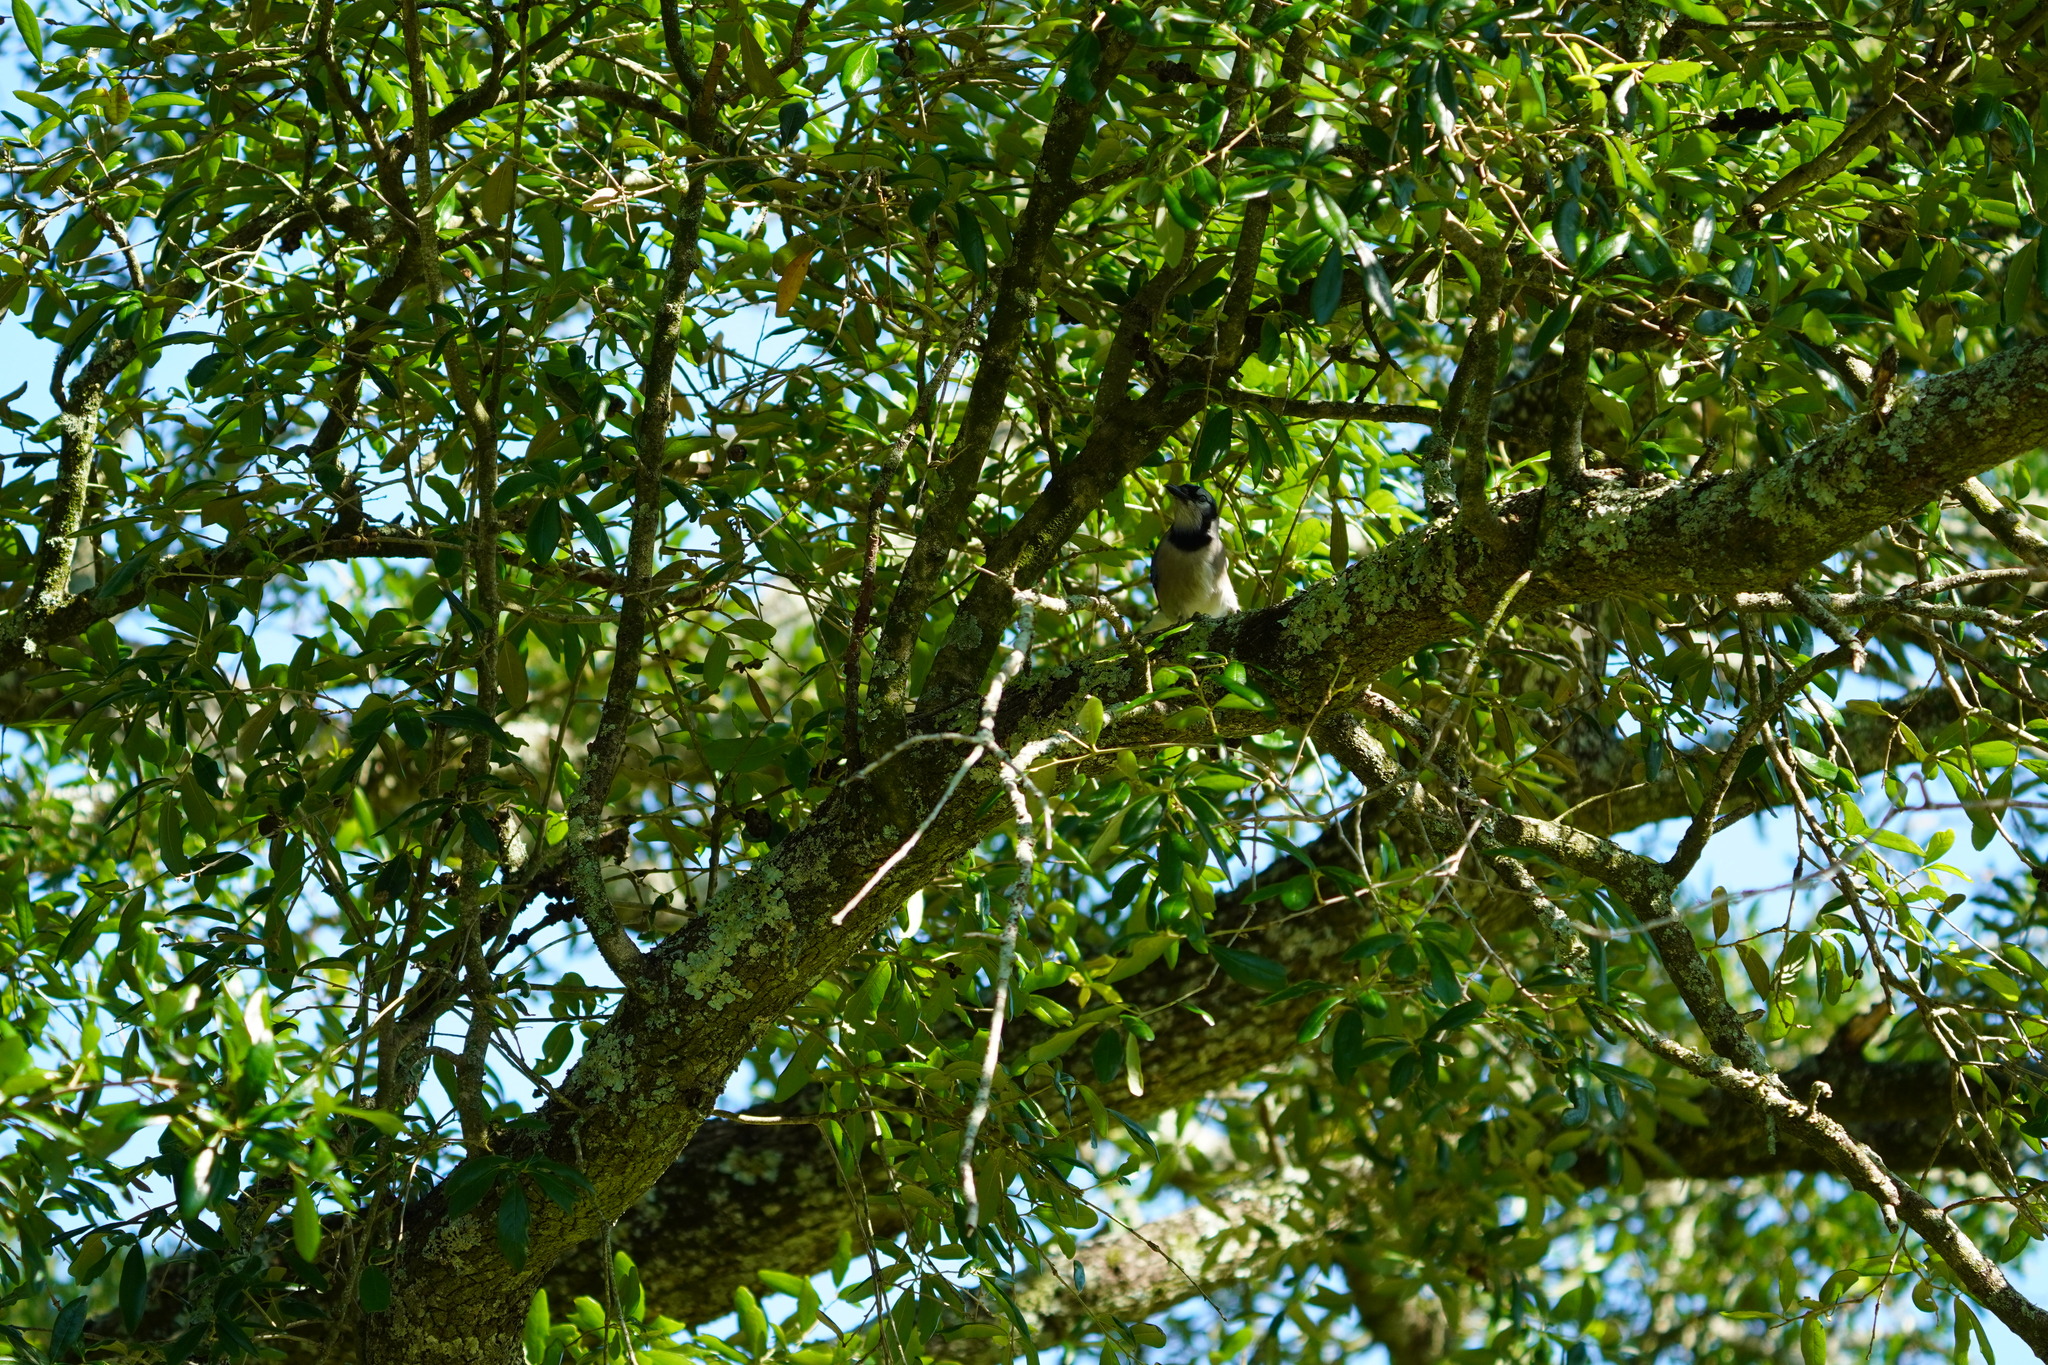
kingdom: Animalia
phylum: Chordata
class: Aves
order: Passeriformes
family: Corvidae
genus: Cyanocitta
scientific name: Cyanocitta cristata
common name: Blue jay
